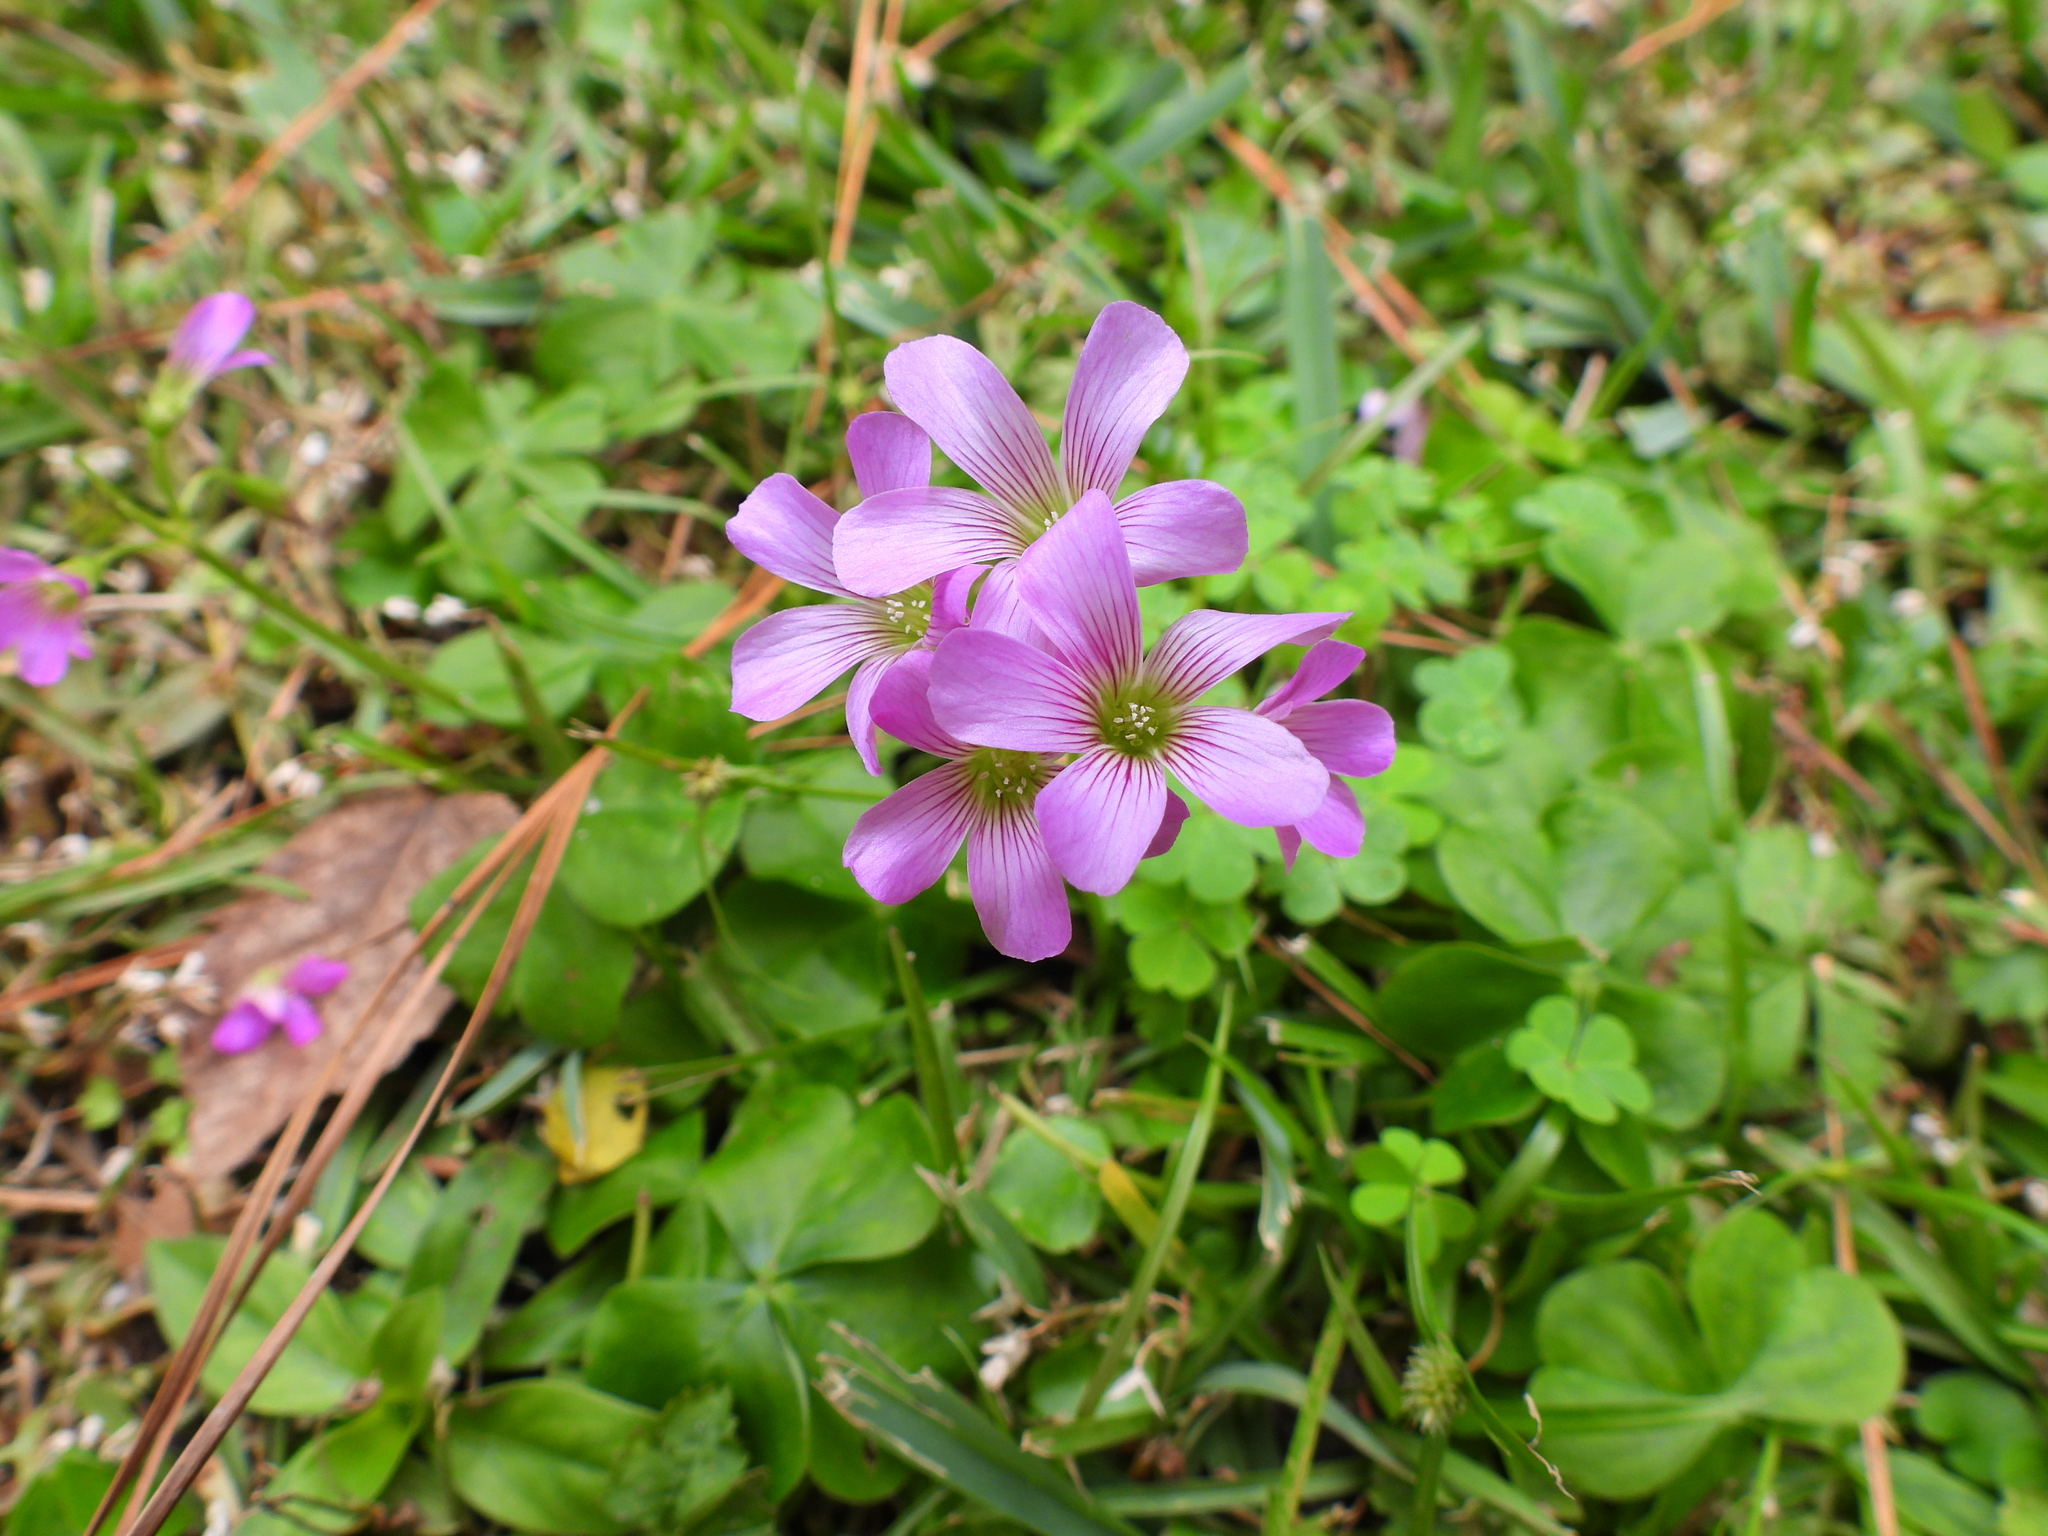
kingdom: Plantae
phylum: Tracheophyta
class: Magnoliopsida
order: Oxalidales
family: Oxalidaceae
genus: Oxalis
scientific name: Oxalis debilis
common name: Large-flowered pink-sorrel
